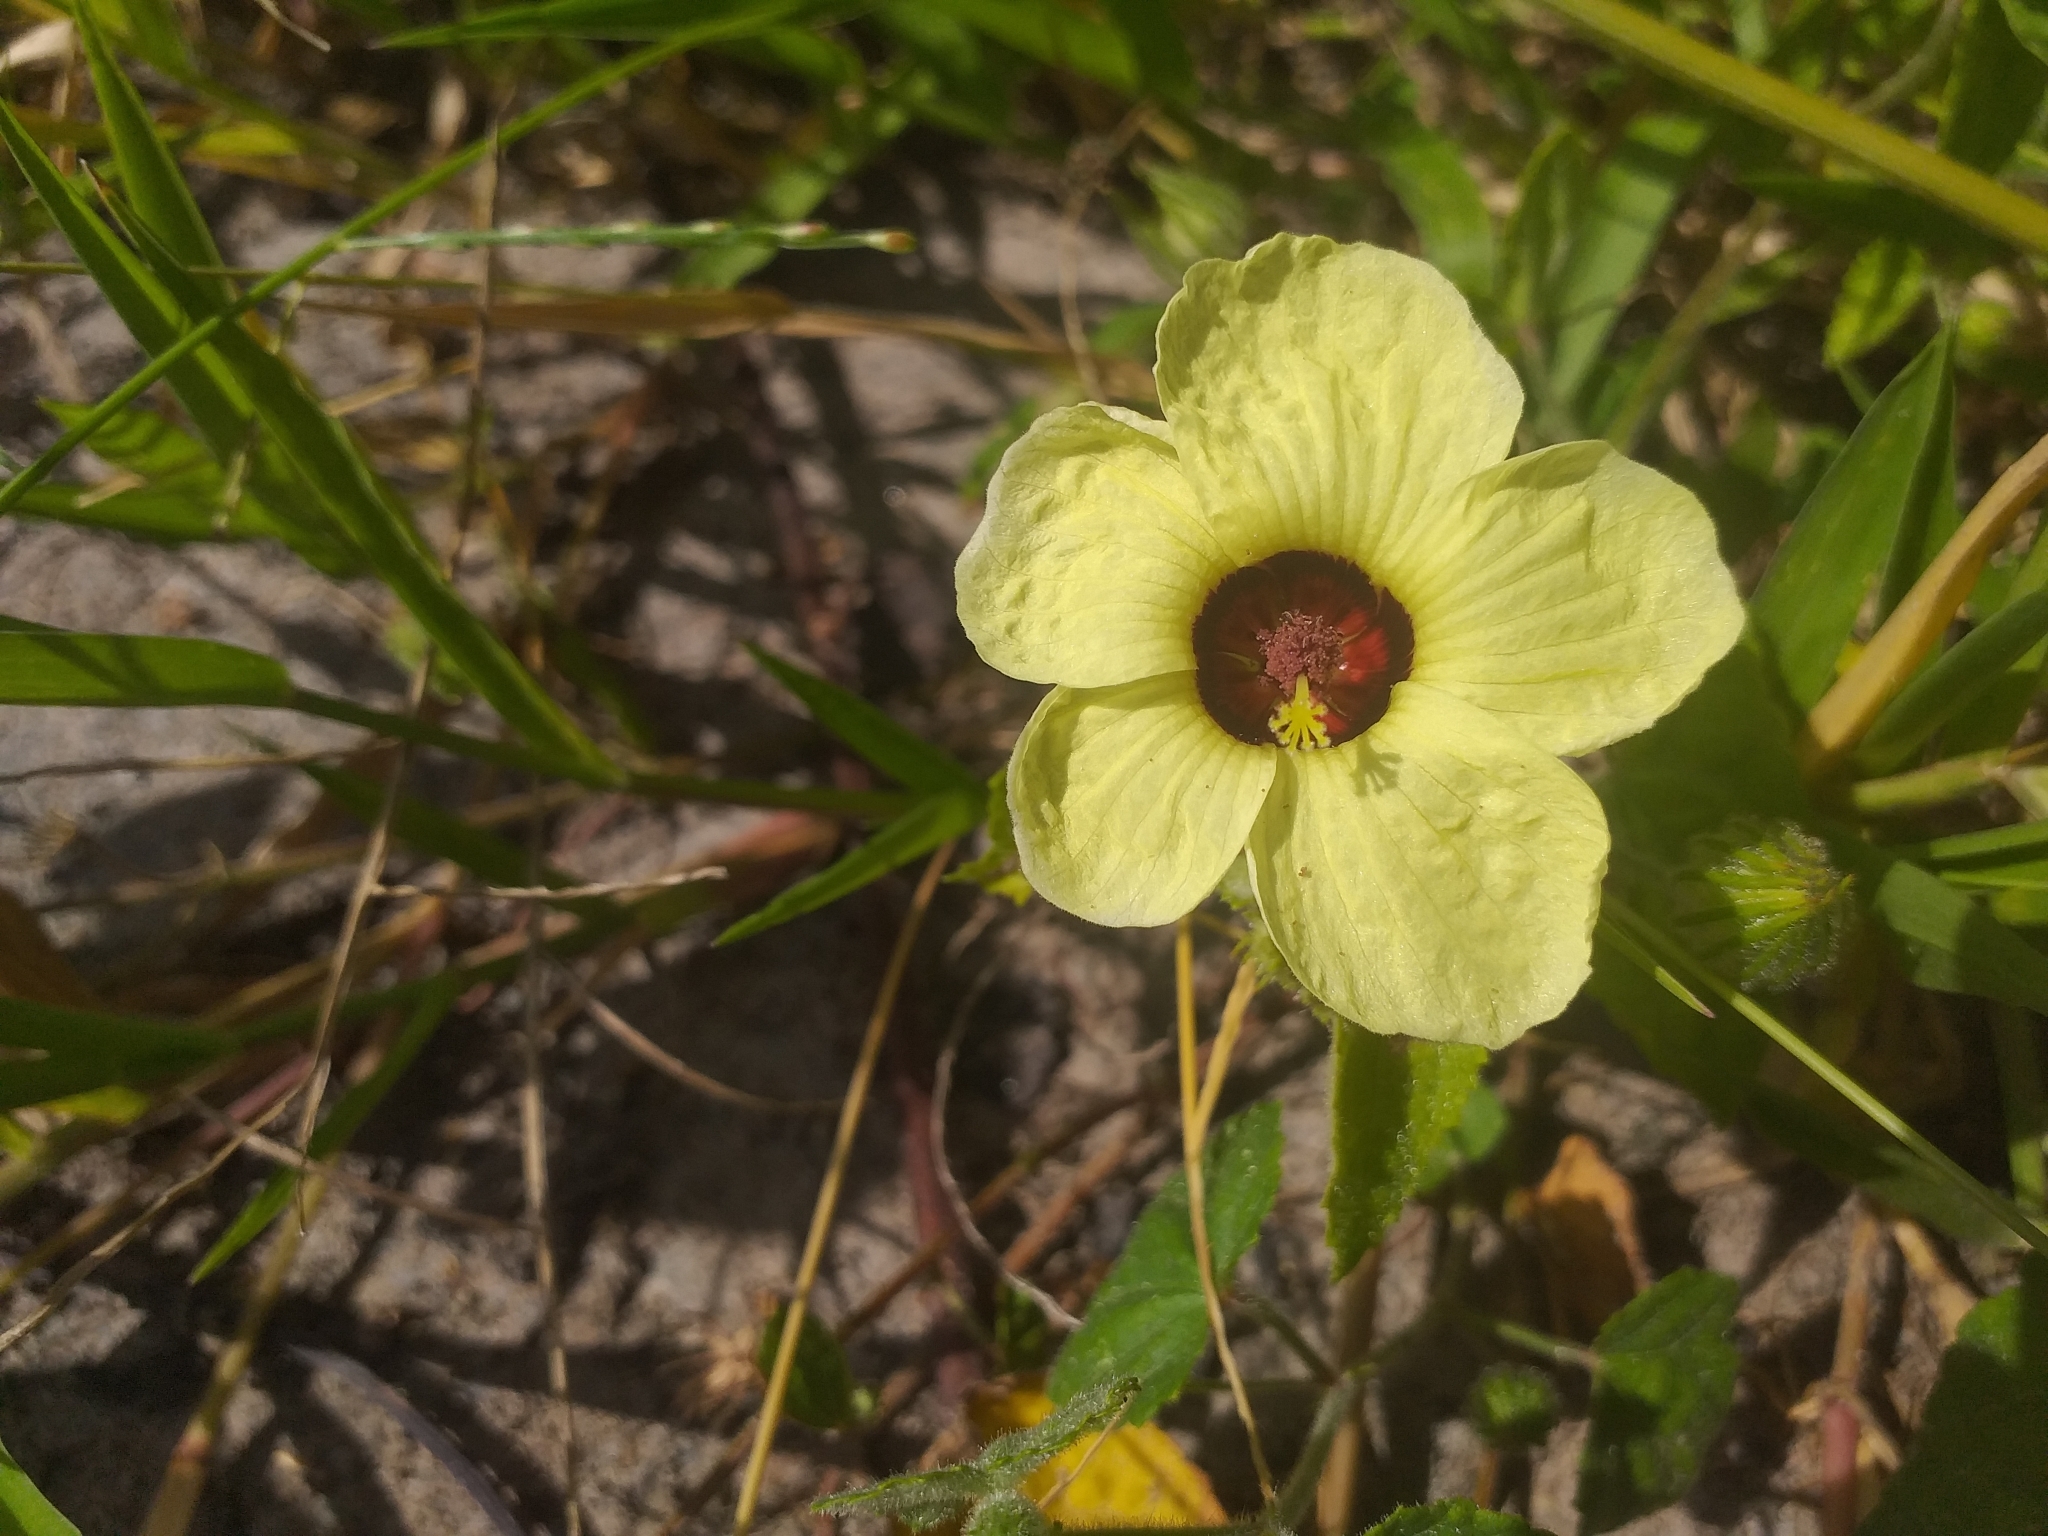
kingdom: Plantae
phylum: Tracheophyta
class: Magnoliopsida
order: Malvales
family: Malvaceae
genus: Pavonia
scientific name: Pavonia cancellata
